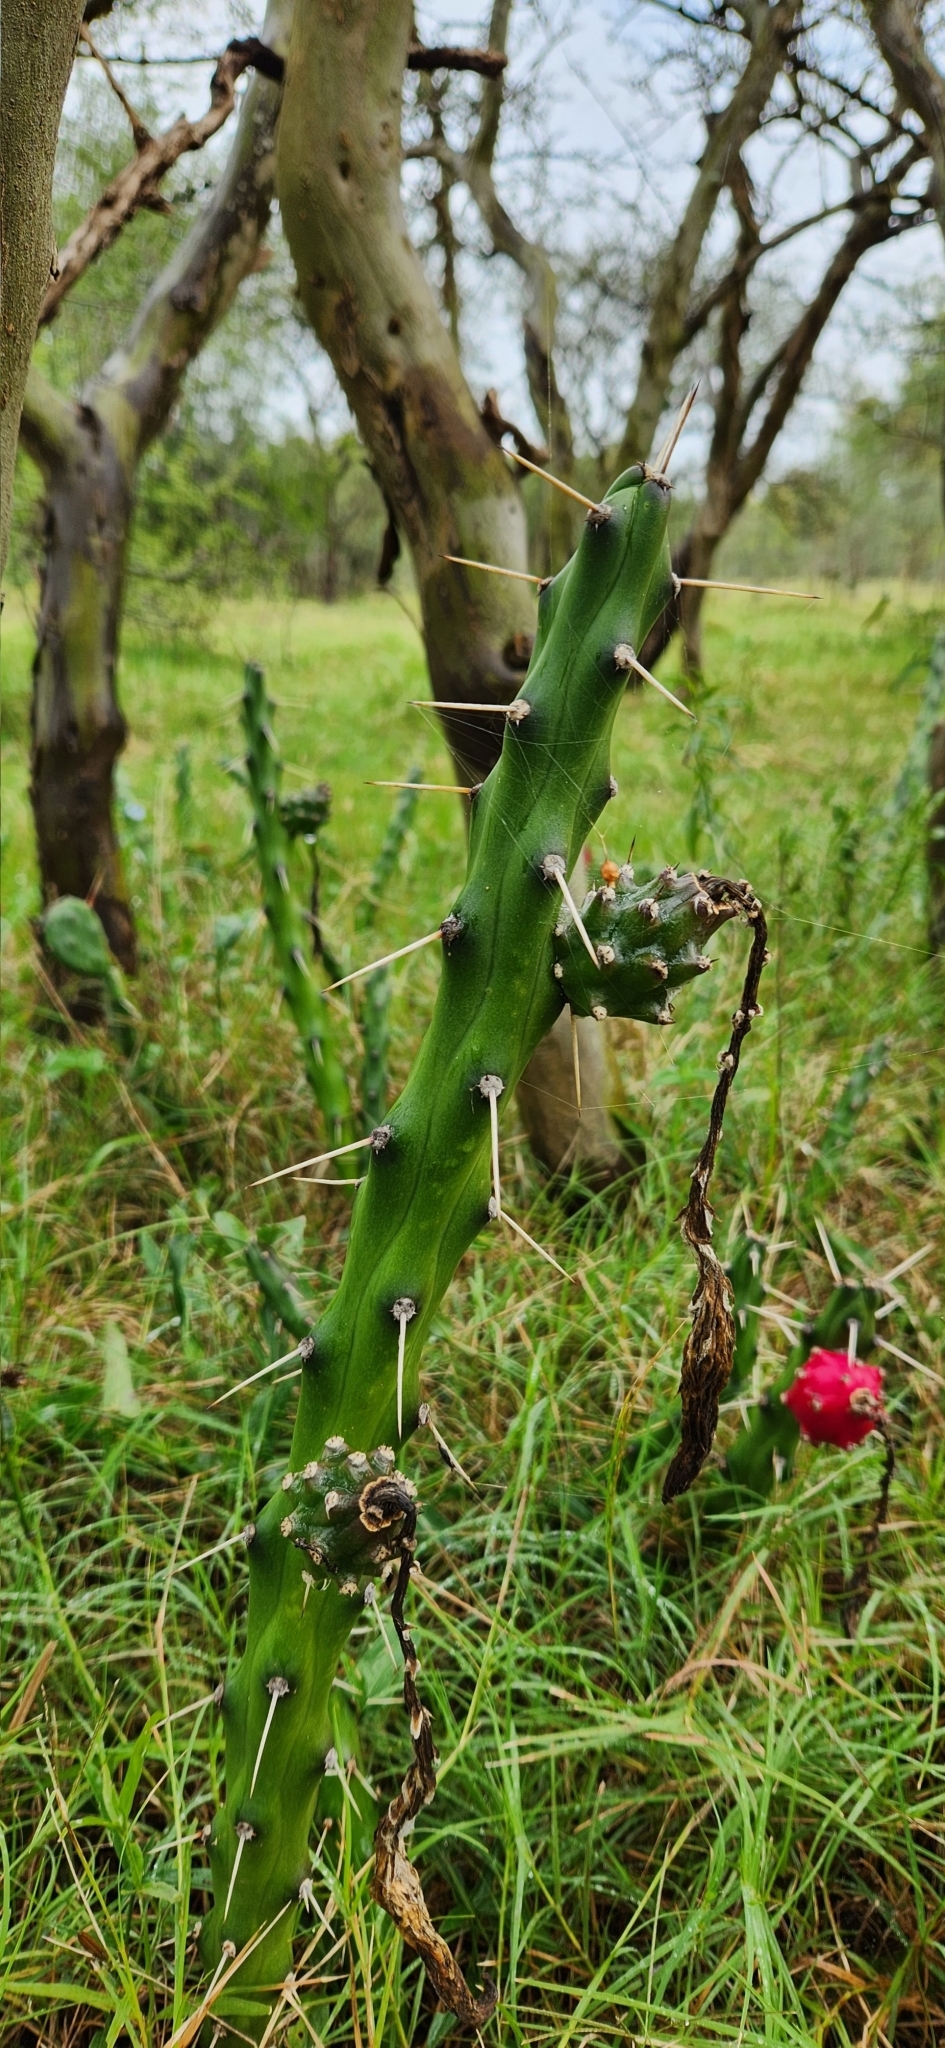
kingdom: Plantae
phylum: Tracheophyta
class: Magnoliopsida
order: Caryophyllales
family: Cactaceae
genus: Harrisia
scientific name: Harrisia martinii
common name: Moon cactus
